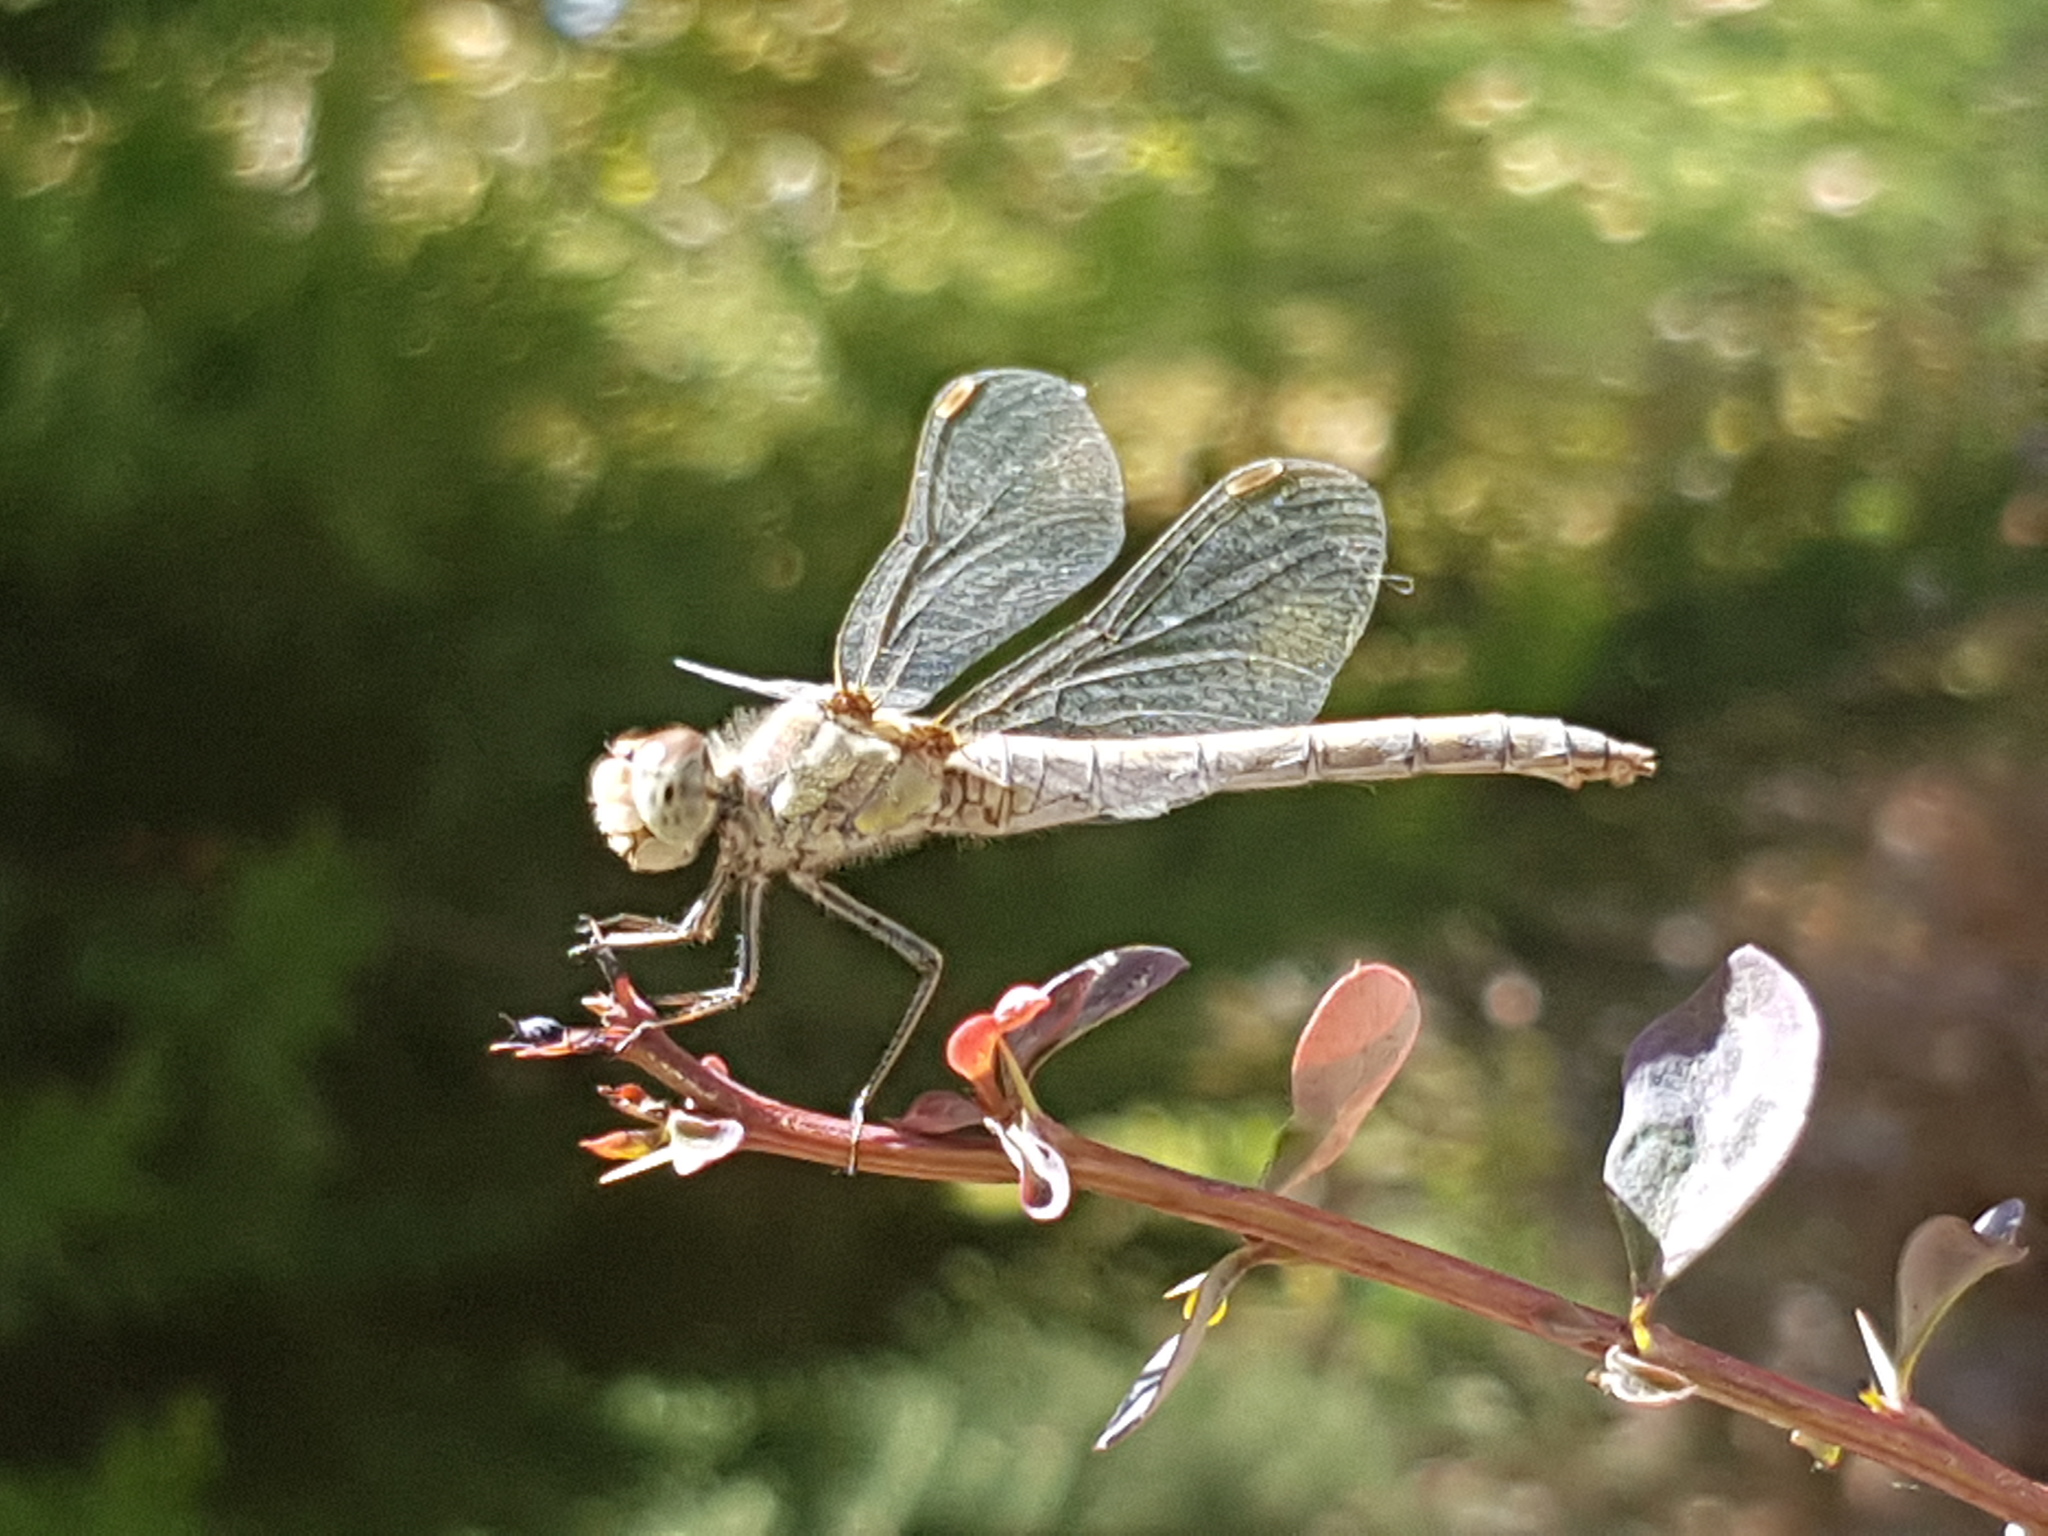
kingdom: Animalia
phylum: Arthropoda
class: Insecta
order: Odonata
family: Libellulidae
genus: Sympetrum
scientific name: Sympetrum striolatum
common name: Common darter
